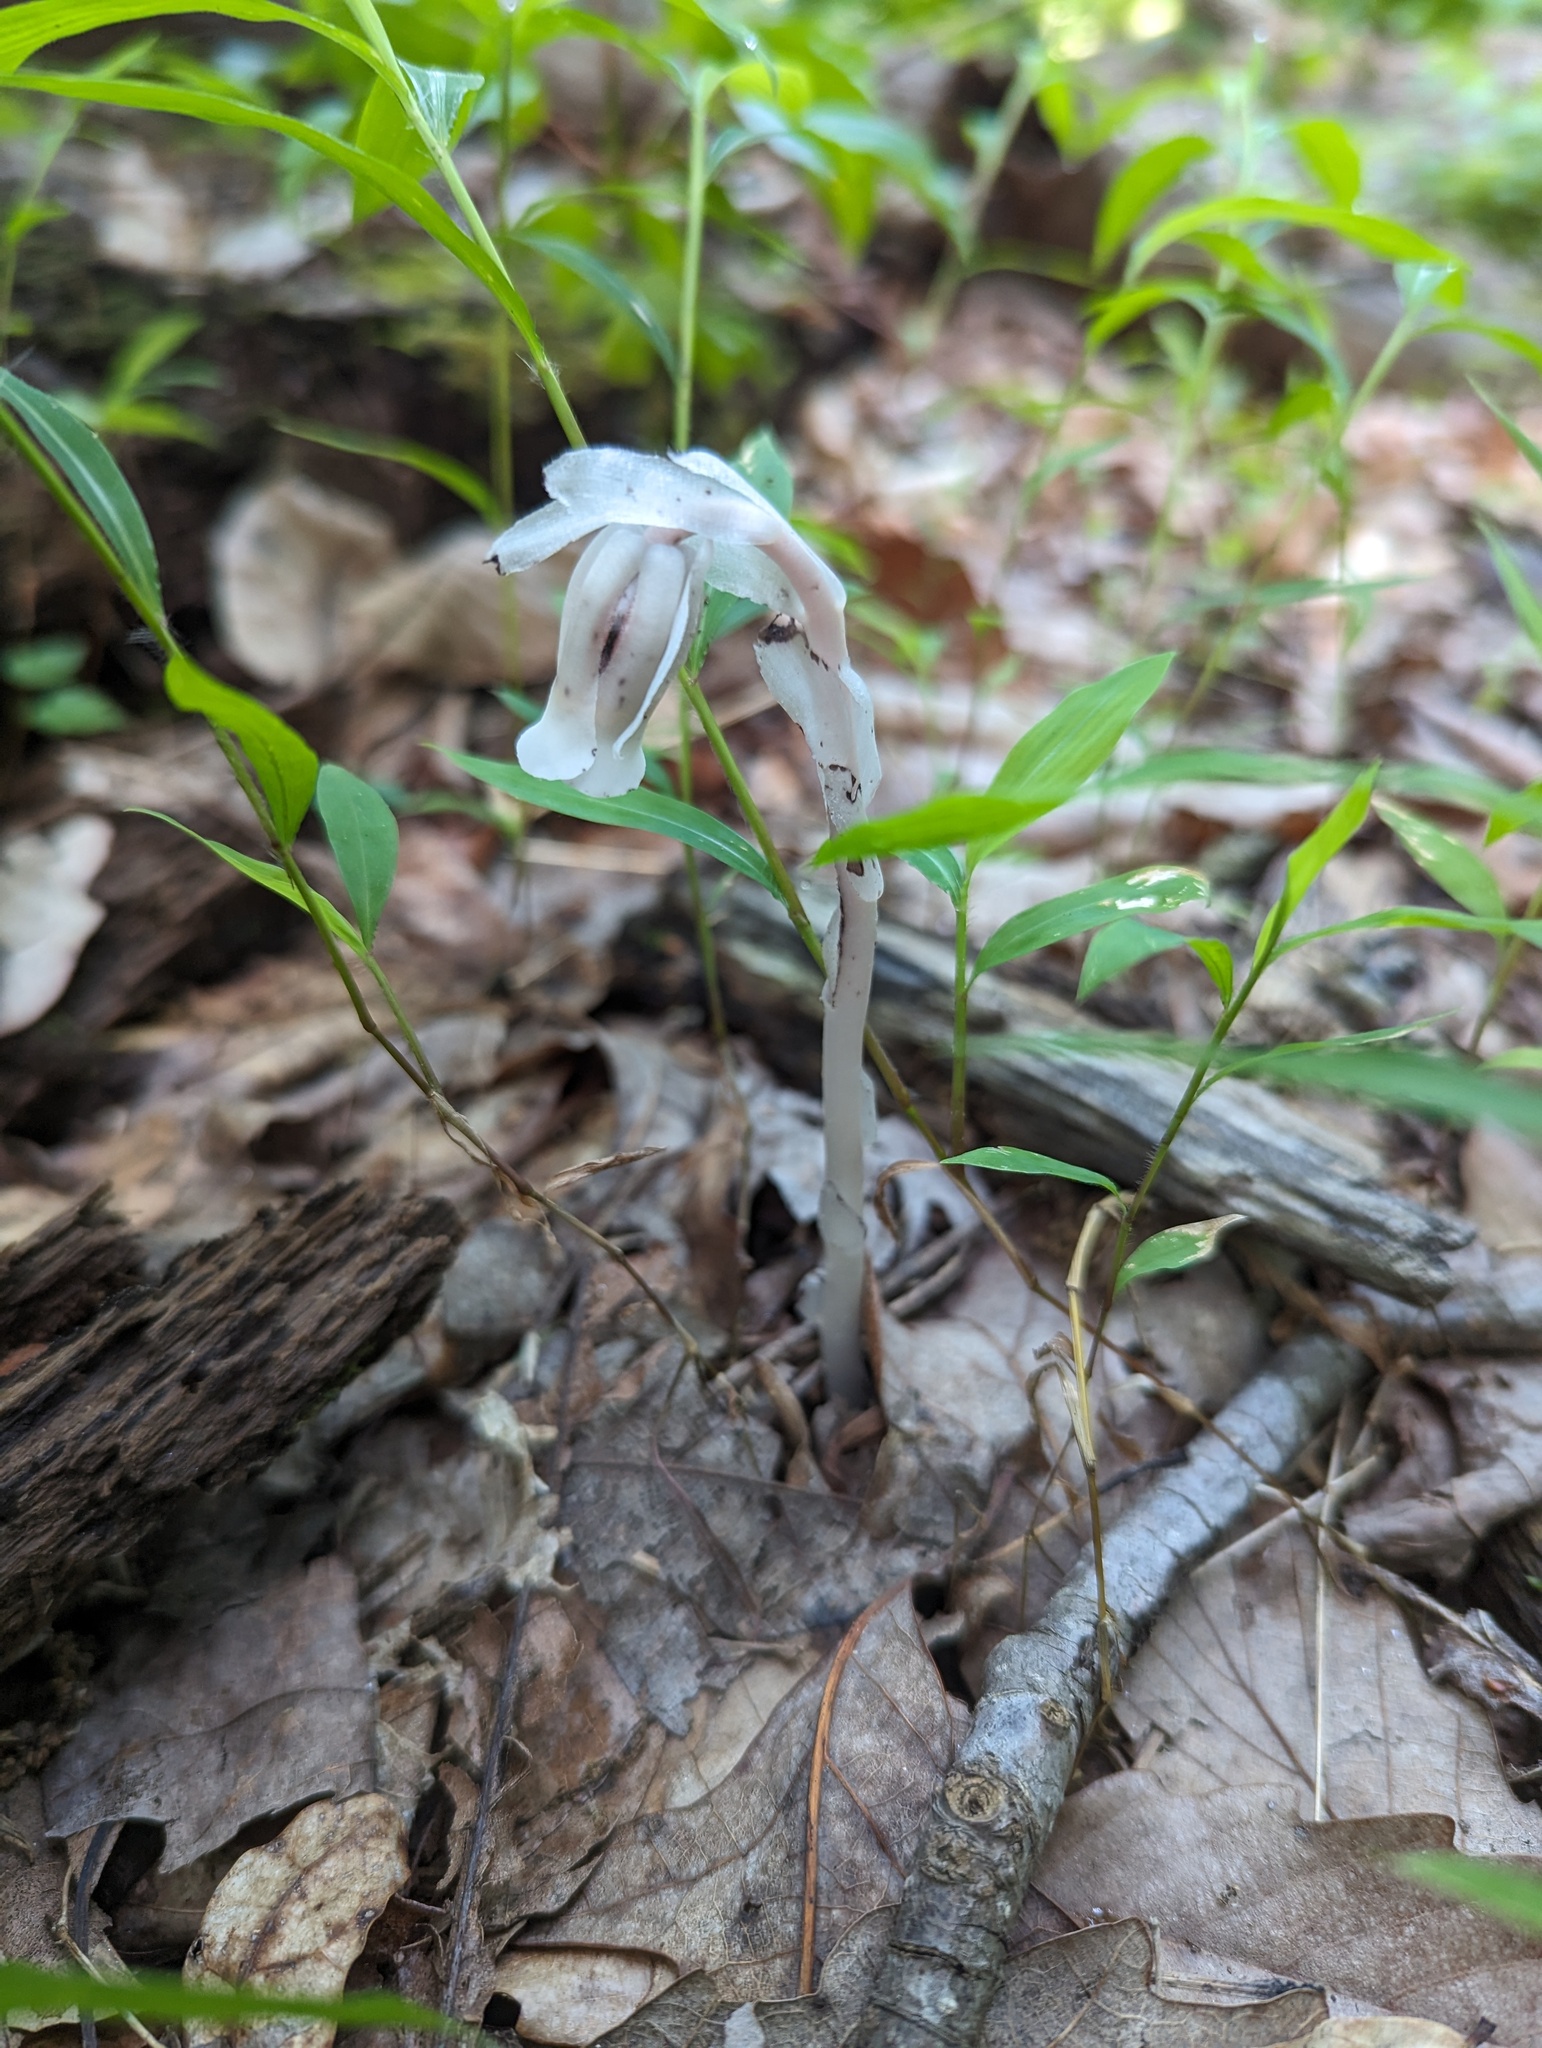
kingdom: Plantae
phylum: Tracheophyta
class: Magnoliopsida
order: Ericales
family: Ericaceae
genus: Monotropa
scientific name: Monotropa uniflora
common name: Convulsion root
